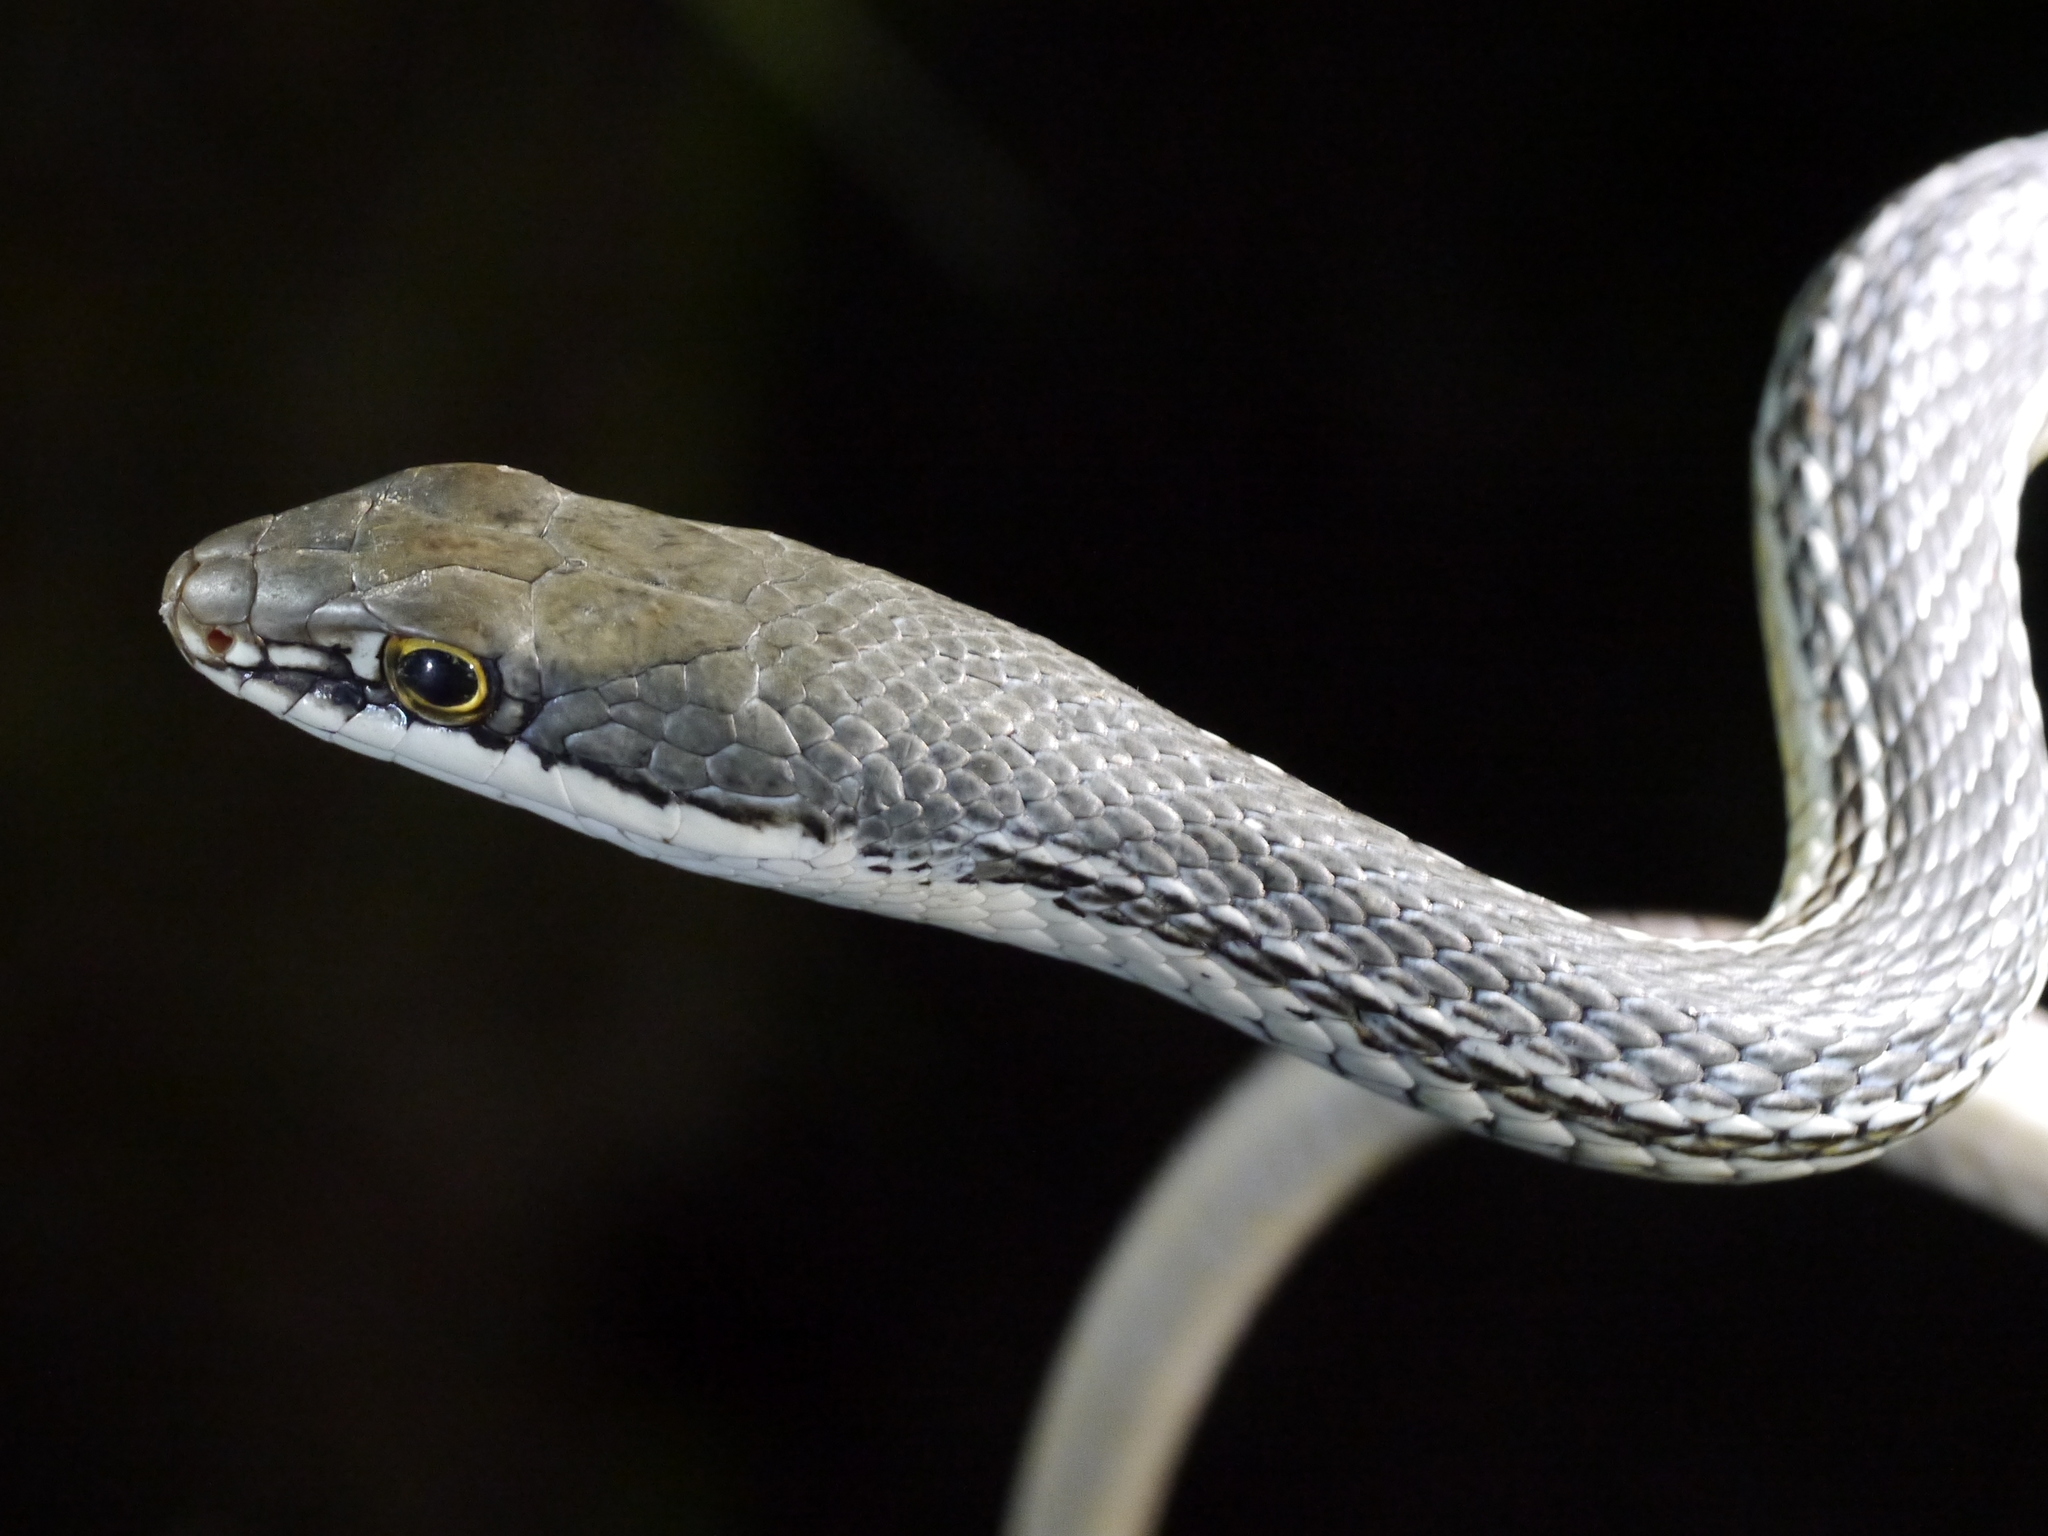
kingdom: Animalia
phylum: Chordata
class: Squamata
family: Colubridae
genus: Masticophis
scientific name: Masticophis bilineatus
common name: Sonoran whipsnake
